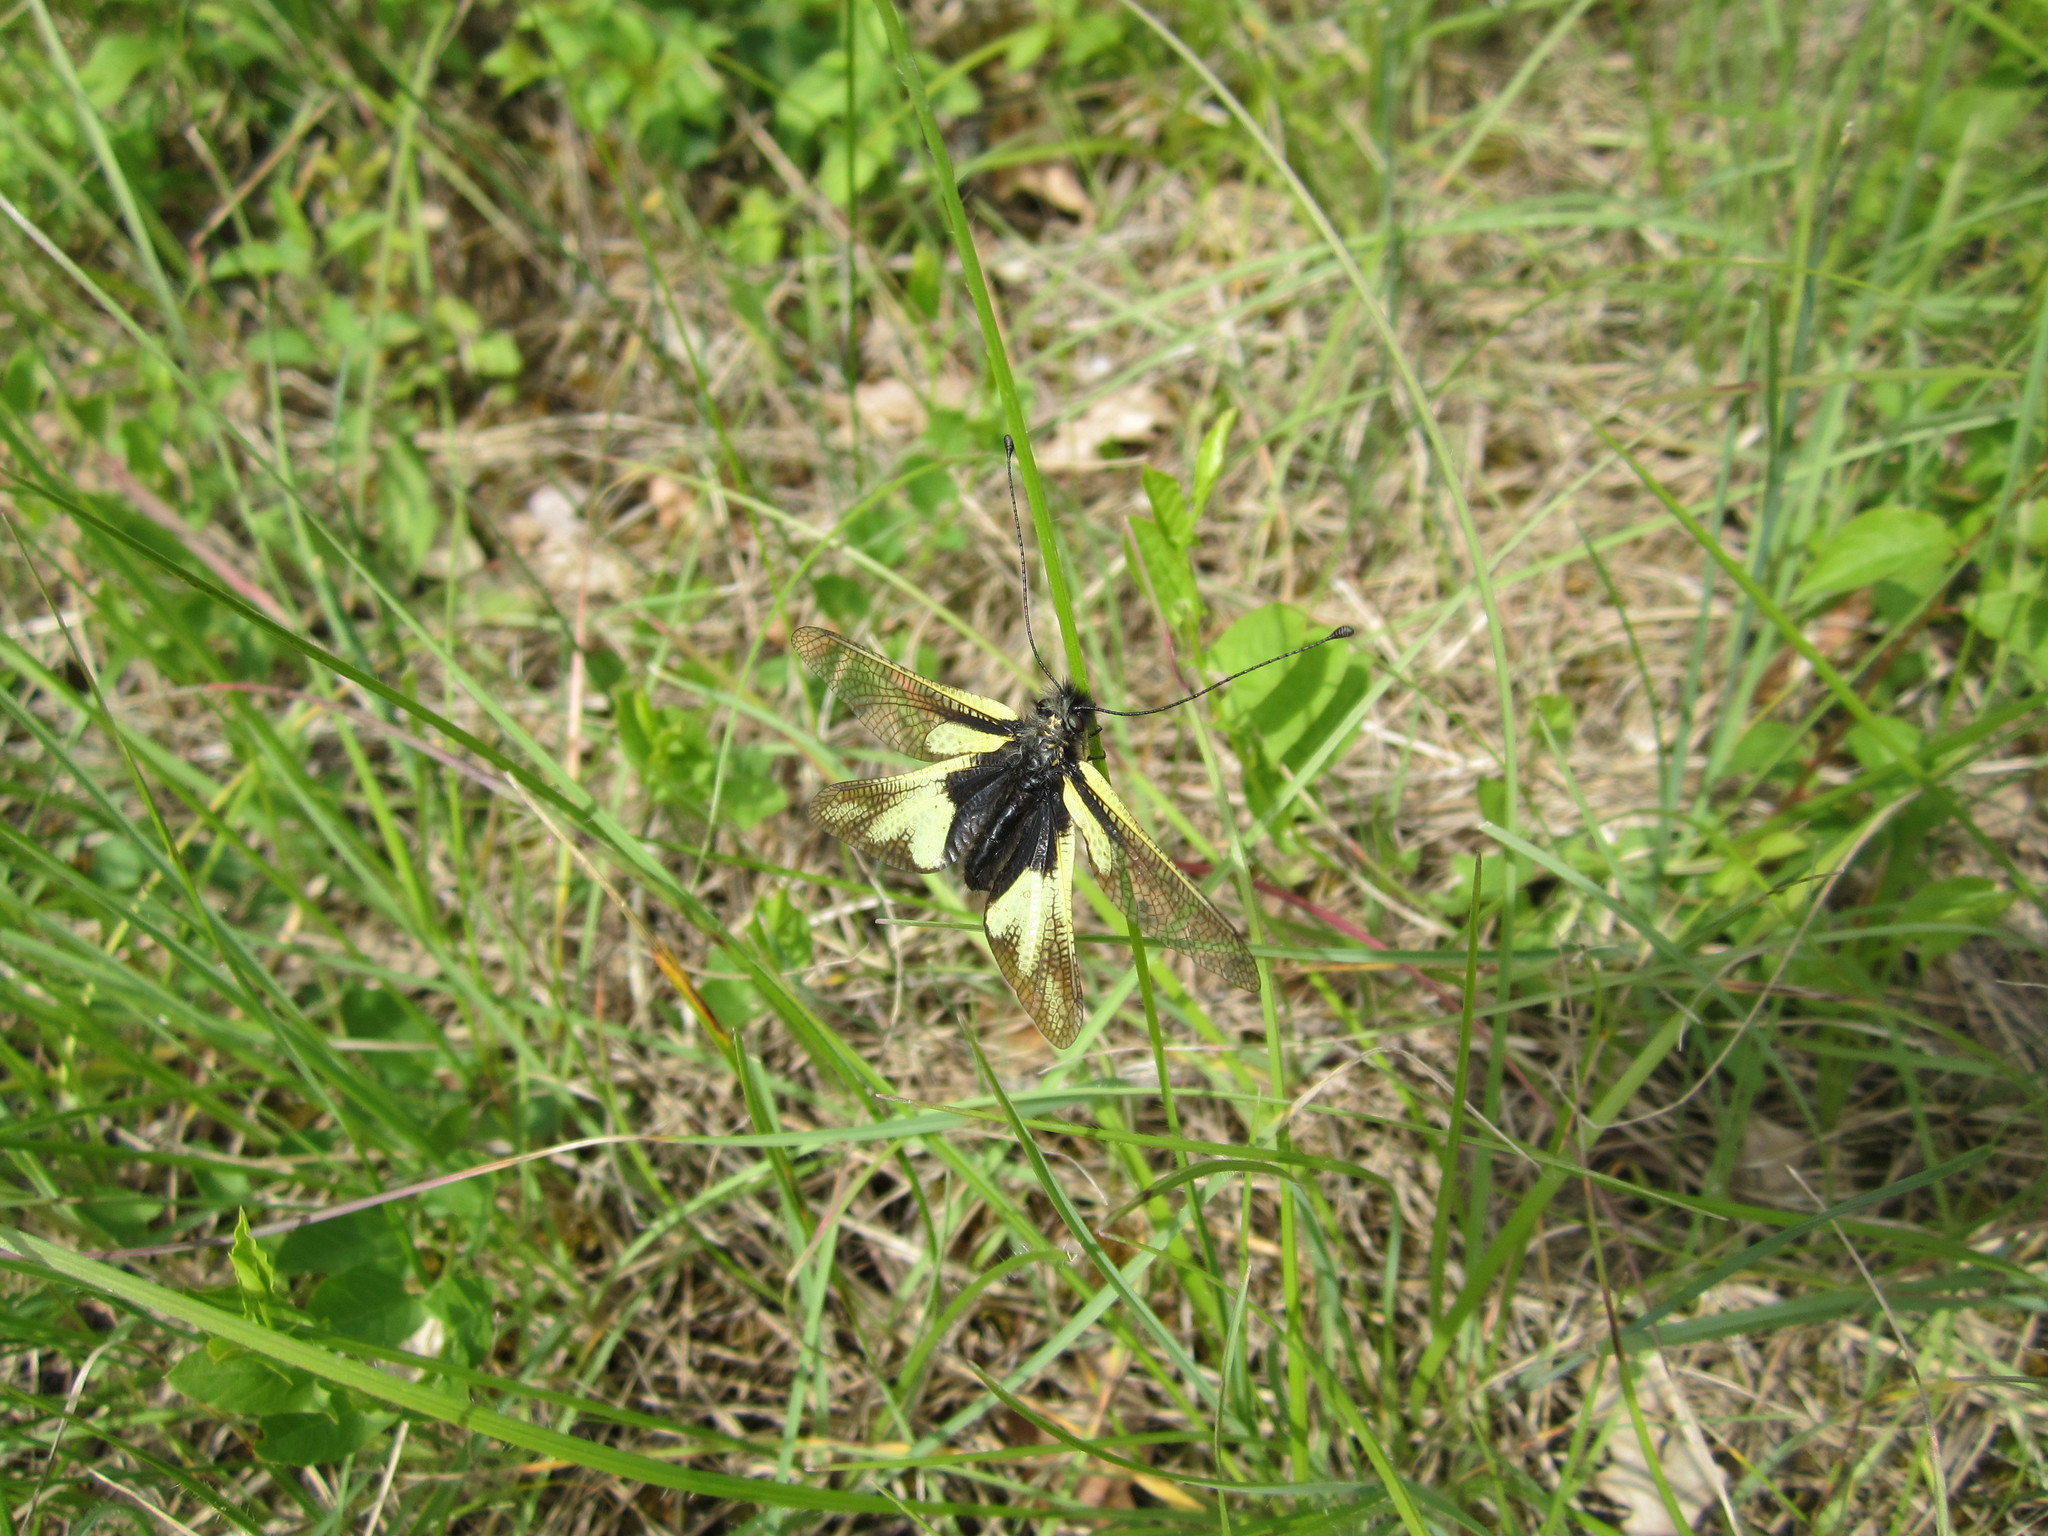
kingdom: Animalia
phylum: Arthropoda
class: Insecta
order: Neuroptera
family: Ascalaphidae
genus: Libelloides
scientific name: Libelloides coccajus
